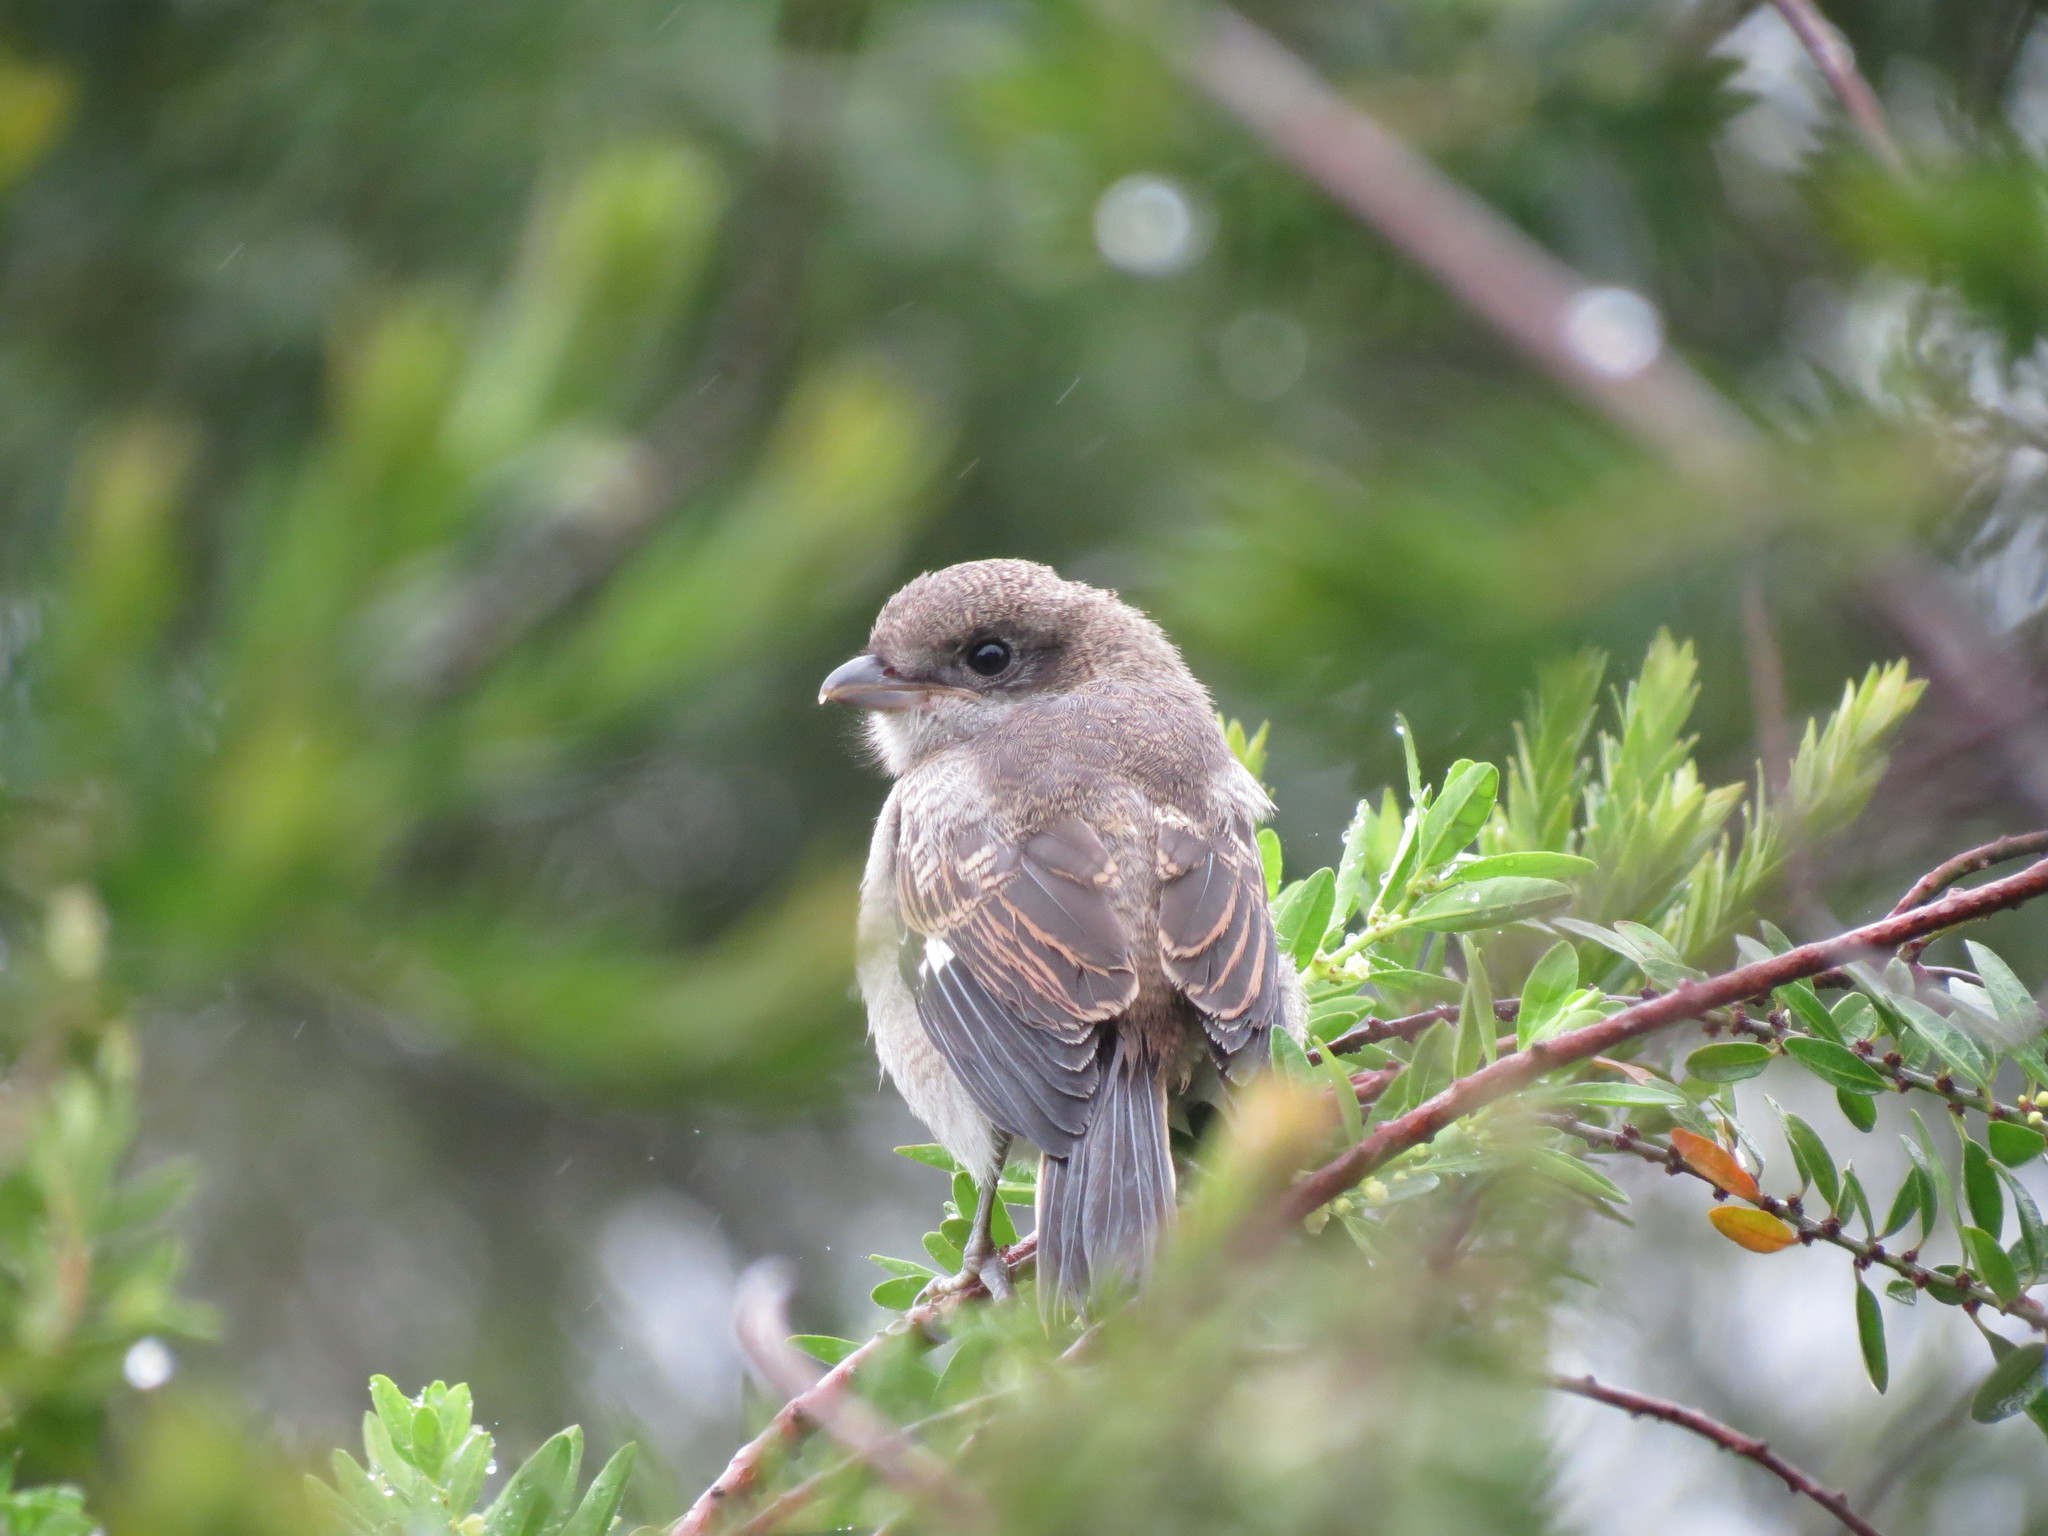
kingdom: Animalia
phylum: Chordata
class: Aves
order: Passeriformes
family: Laniidae
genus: Lanius
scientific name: Lanius collaris
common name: Southern fiscal
